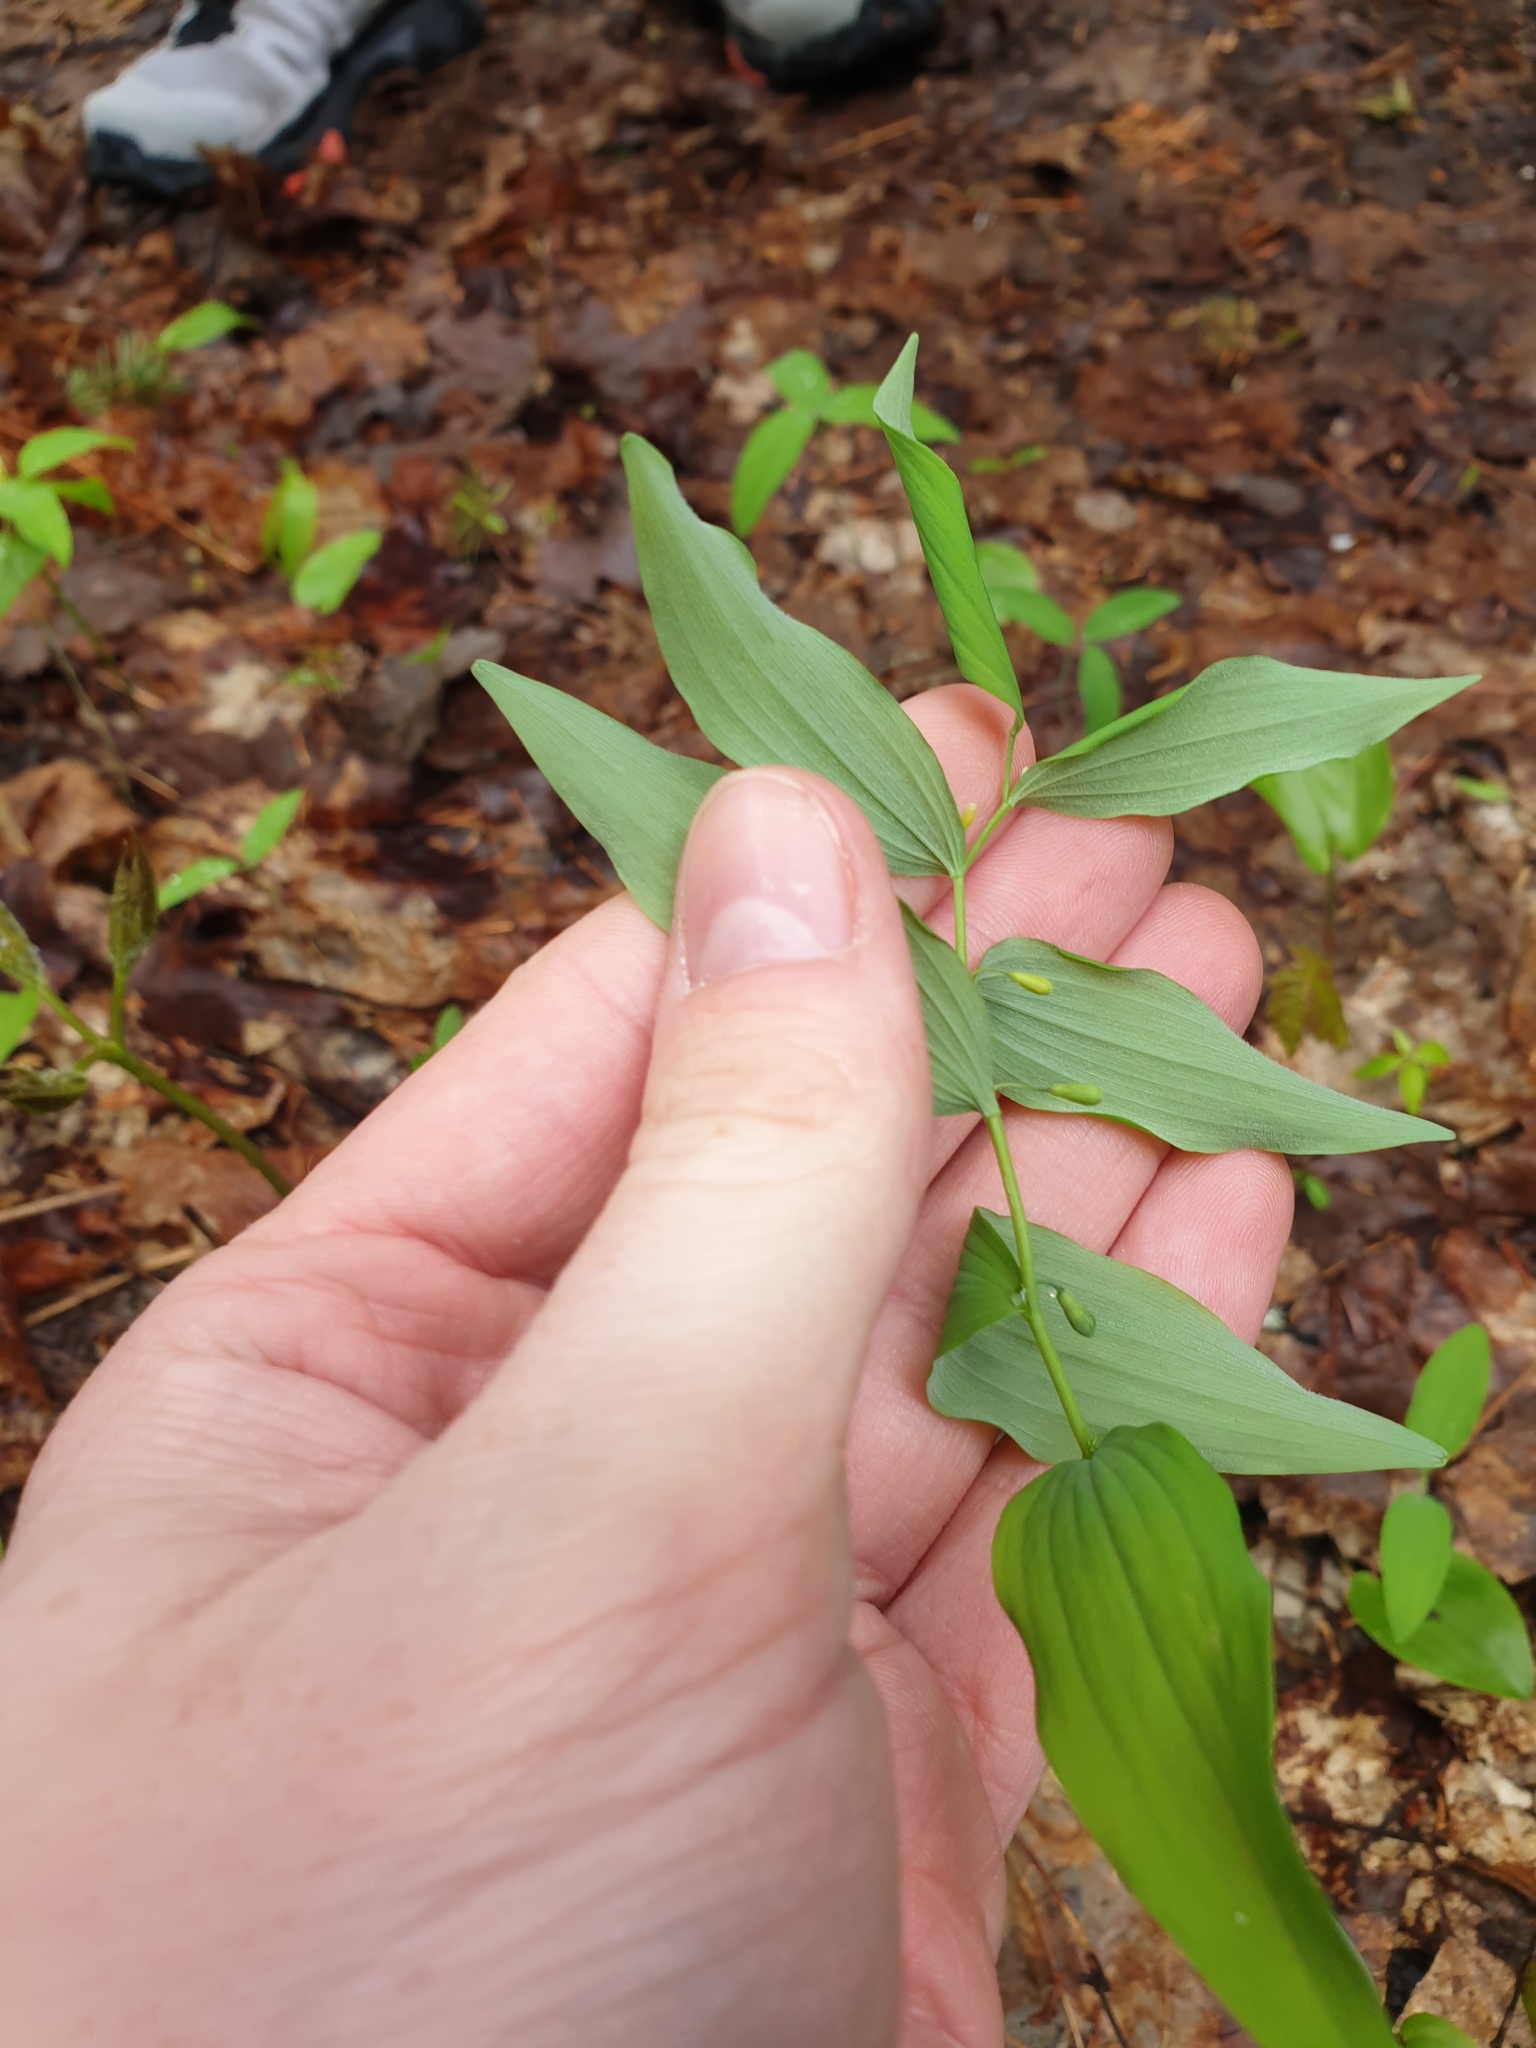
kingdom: Plantae
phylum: Tracheophyta
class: Liliopsida
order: Asparagales
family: Asparagaceae
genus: Polygonatum
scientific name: Polygonatum pubescens
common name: Downy solomon's seal
